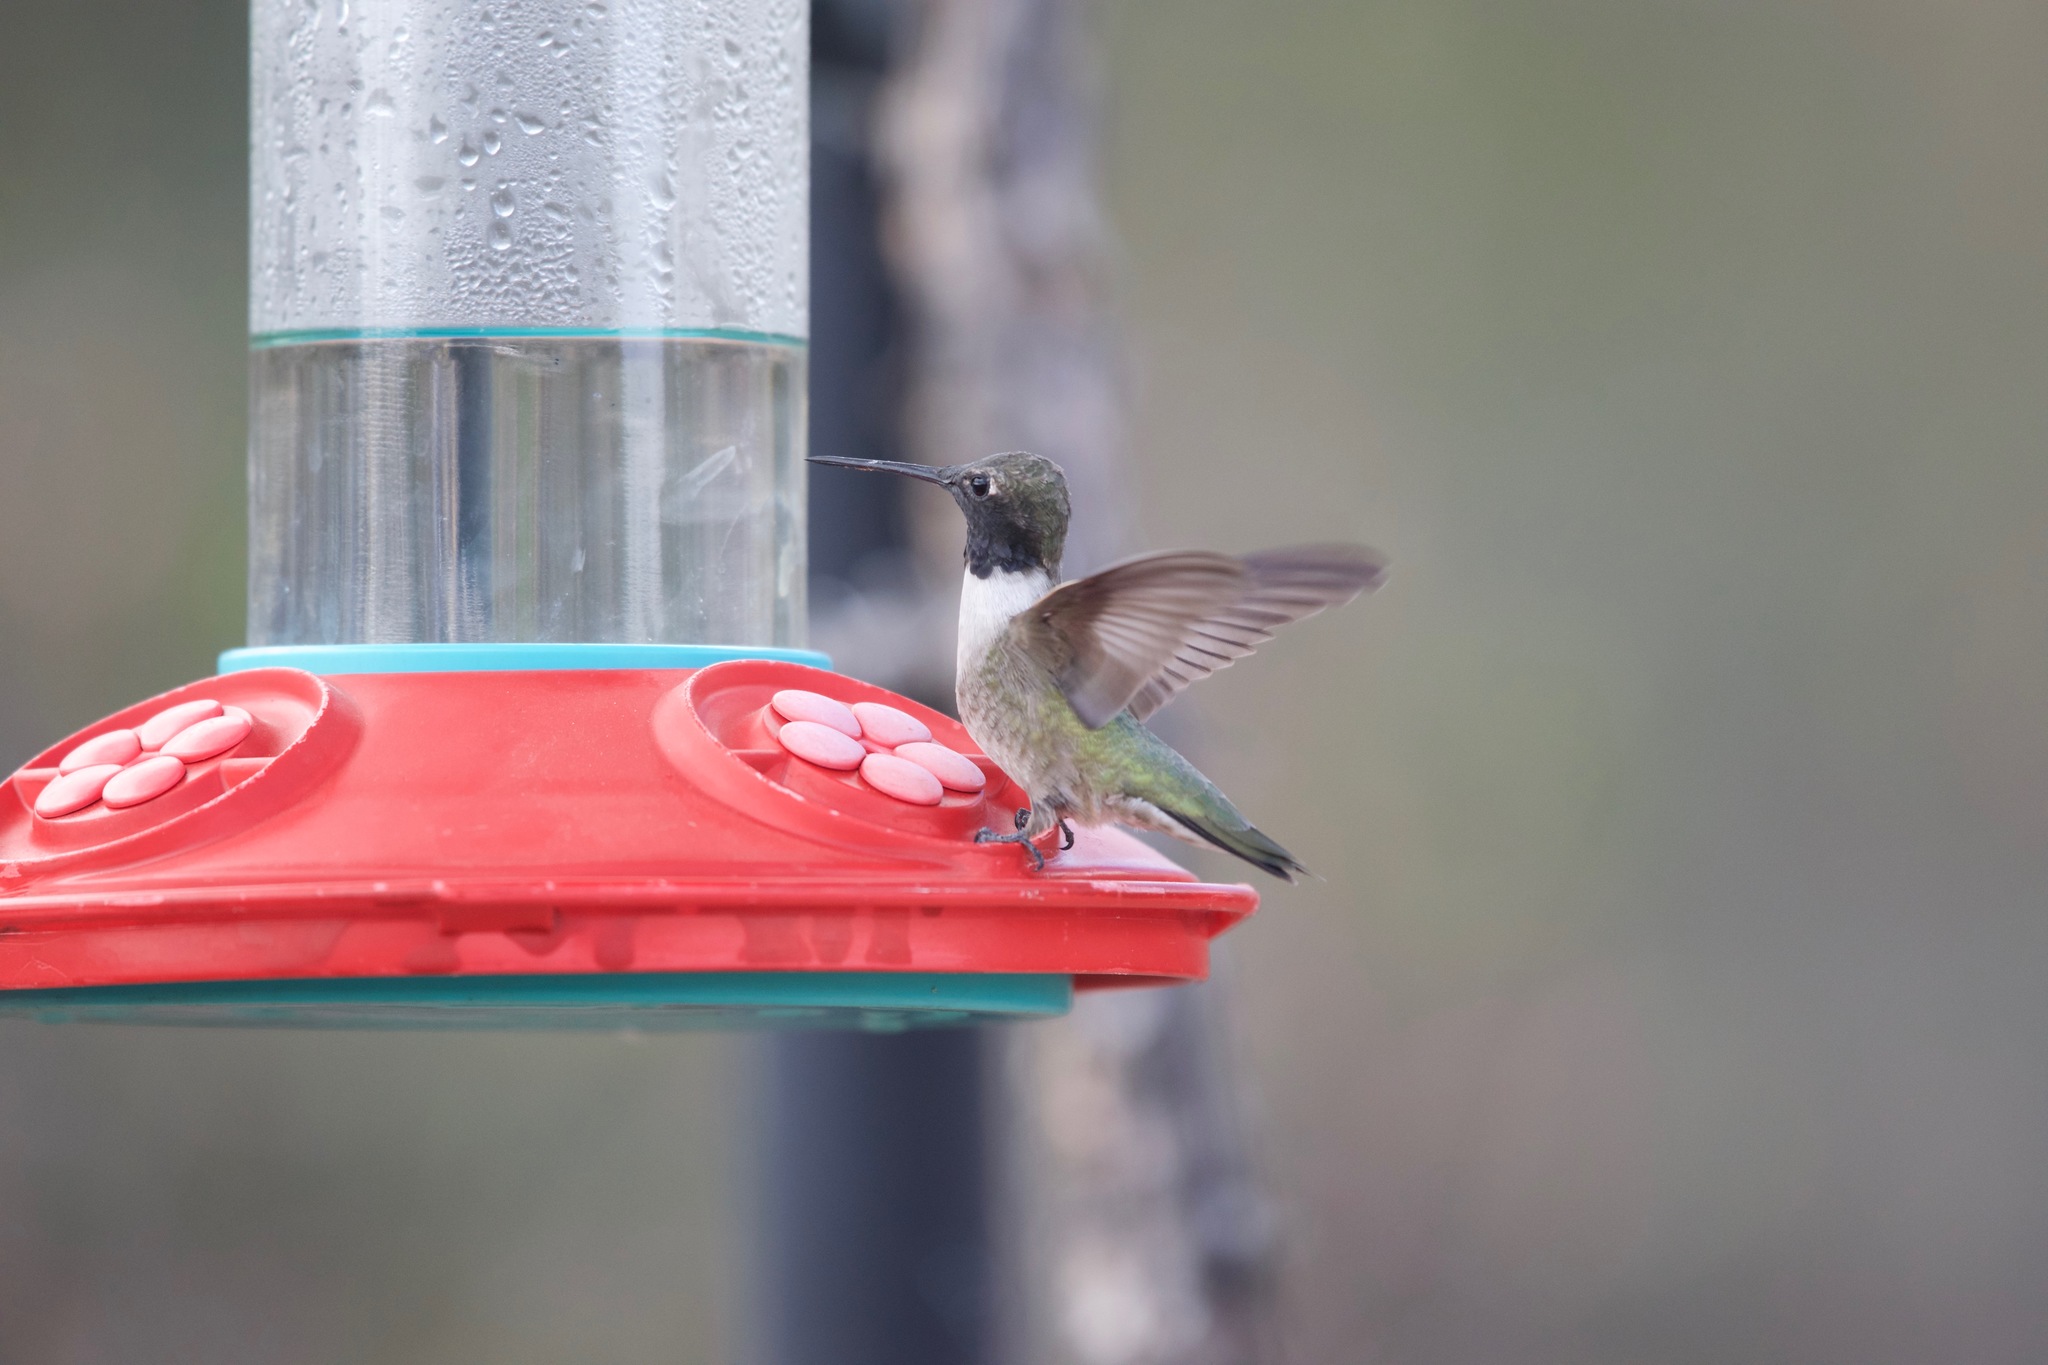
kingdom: Animalia
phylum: Chordata
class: Aves
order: Apodiformes
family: Trochilidae
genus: Archilochus
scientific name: Archilochus alexandri
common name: Black-chinned hummingbird
